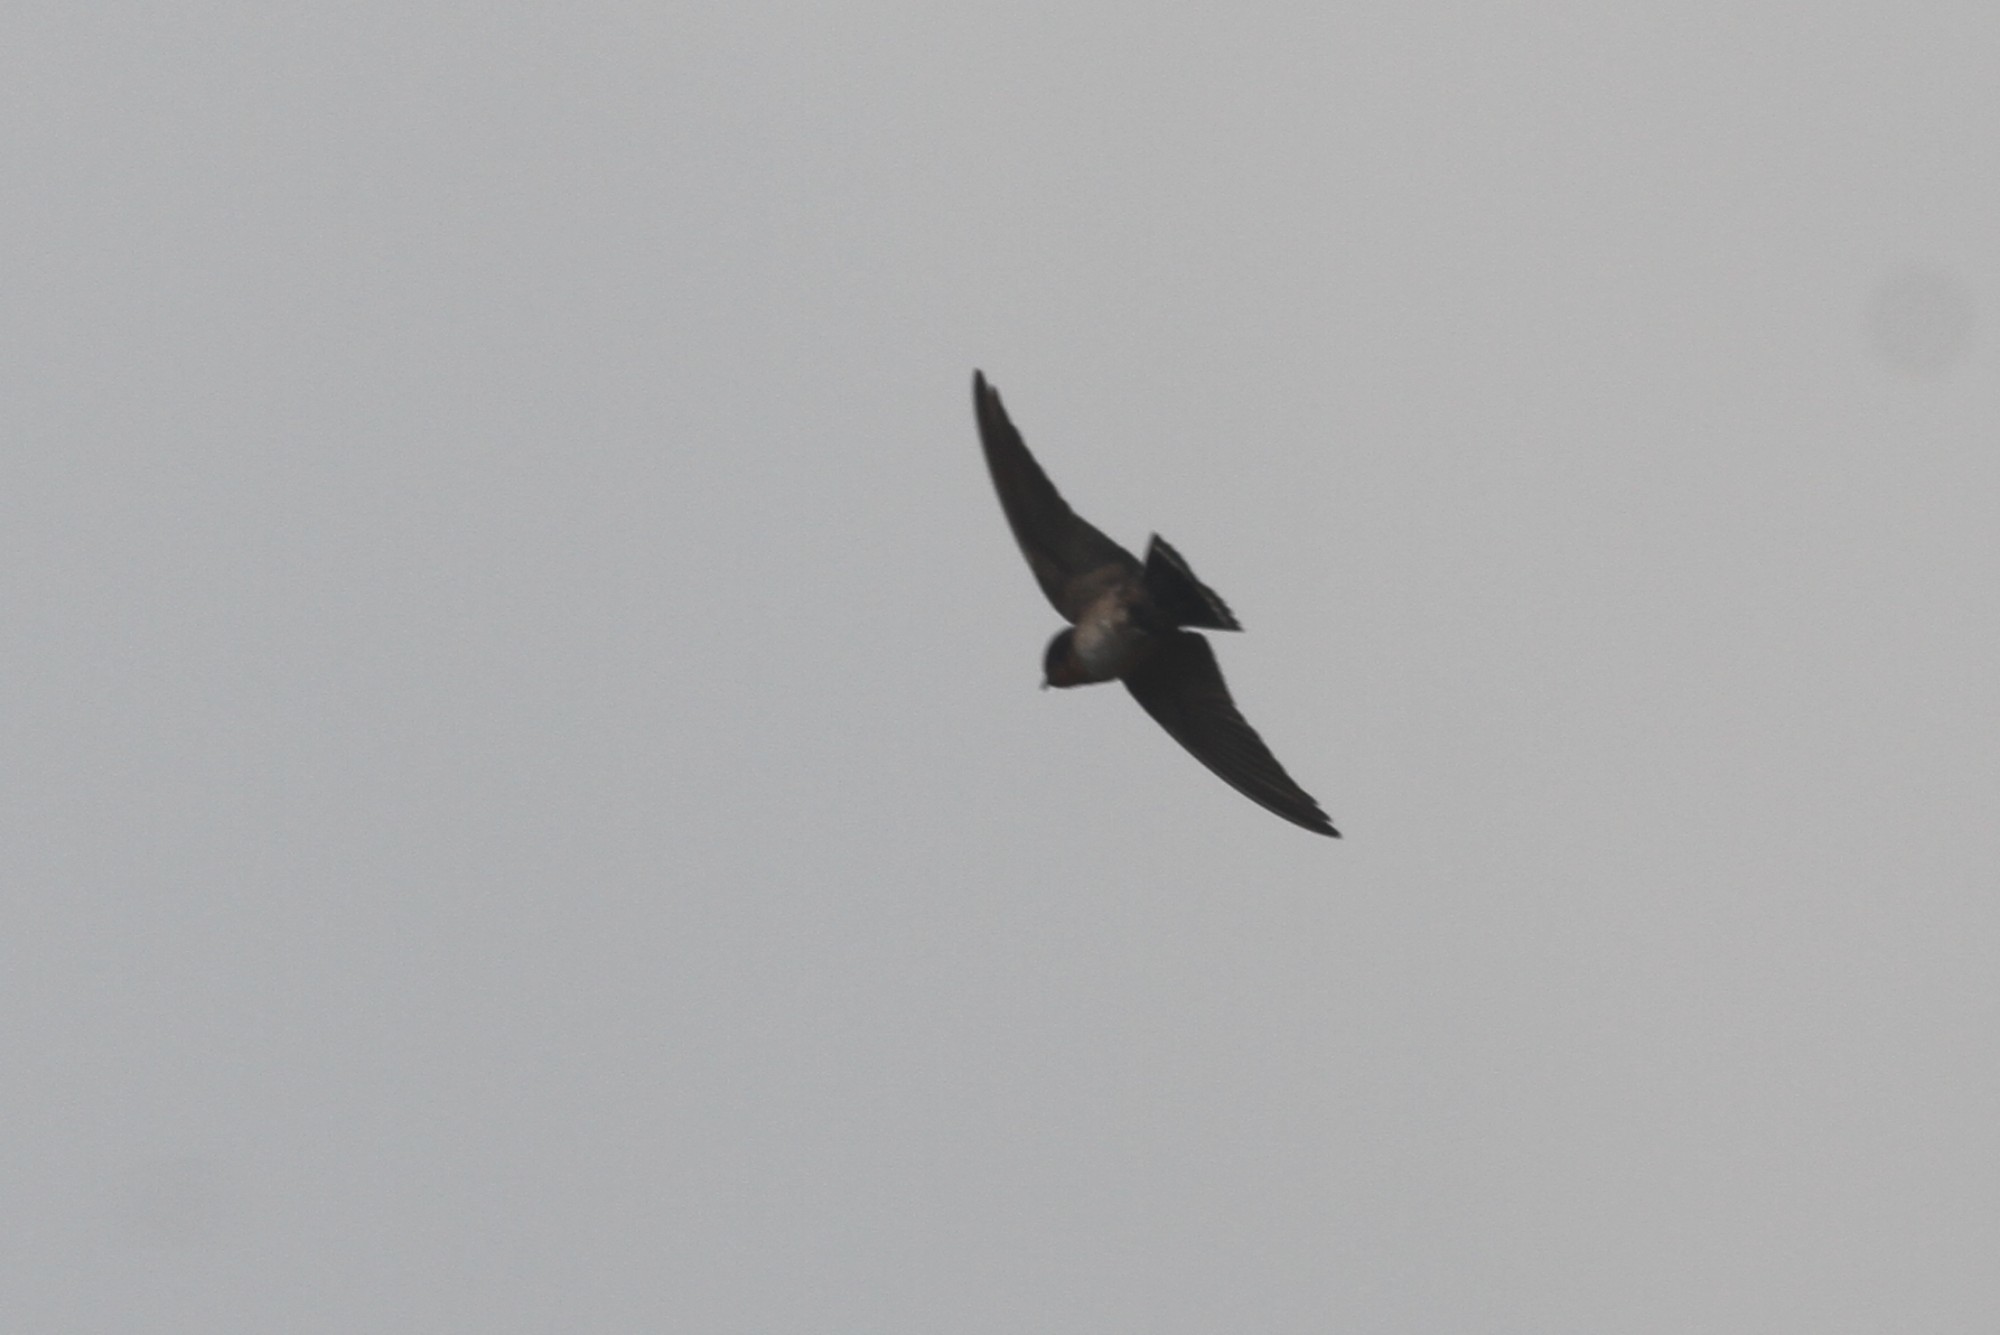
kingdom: Animalia
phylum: Chordata
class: Aves
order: Passeriformes
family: Hirundinidae
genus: Hirundo
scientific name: Hirundo domicola
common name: Hill swallow
